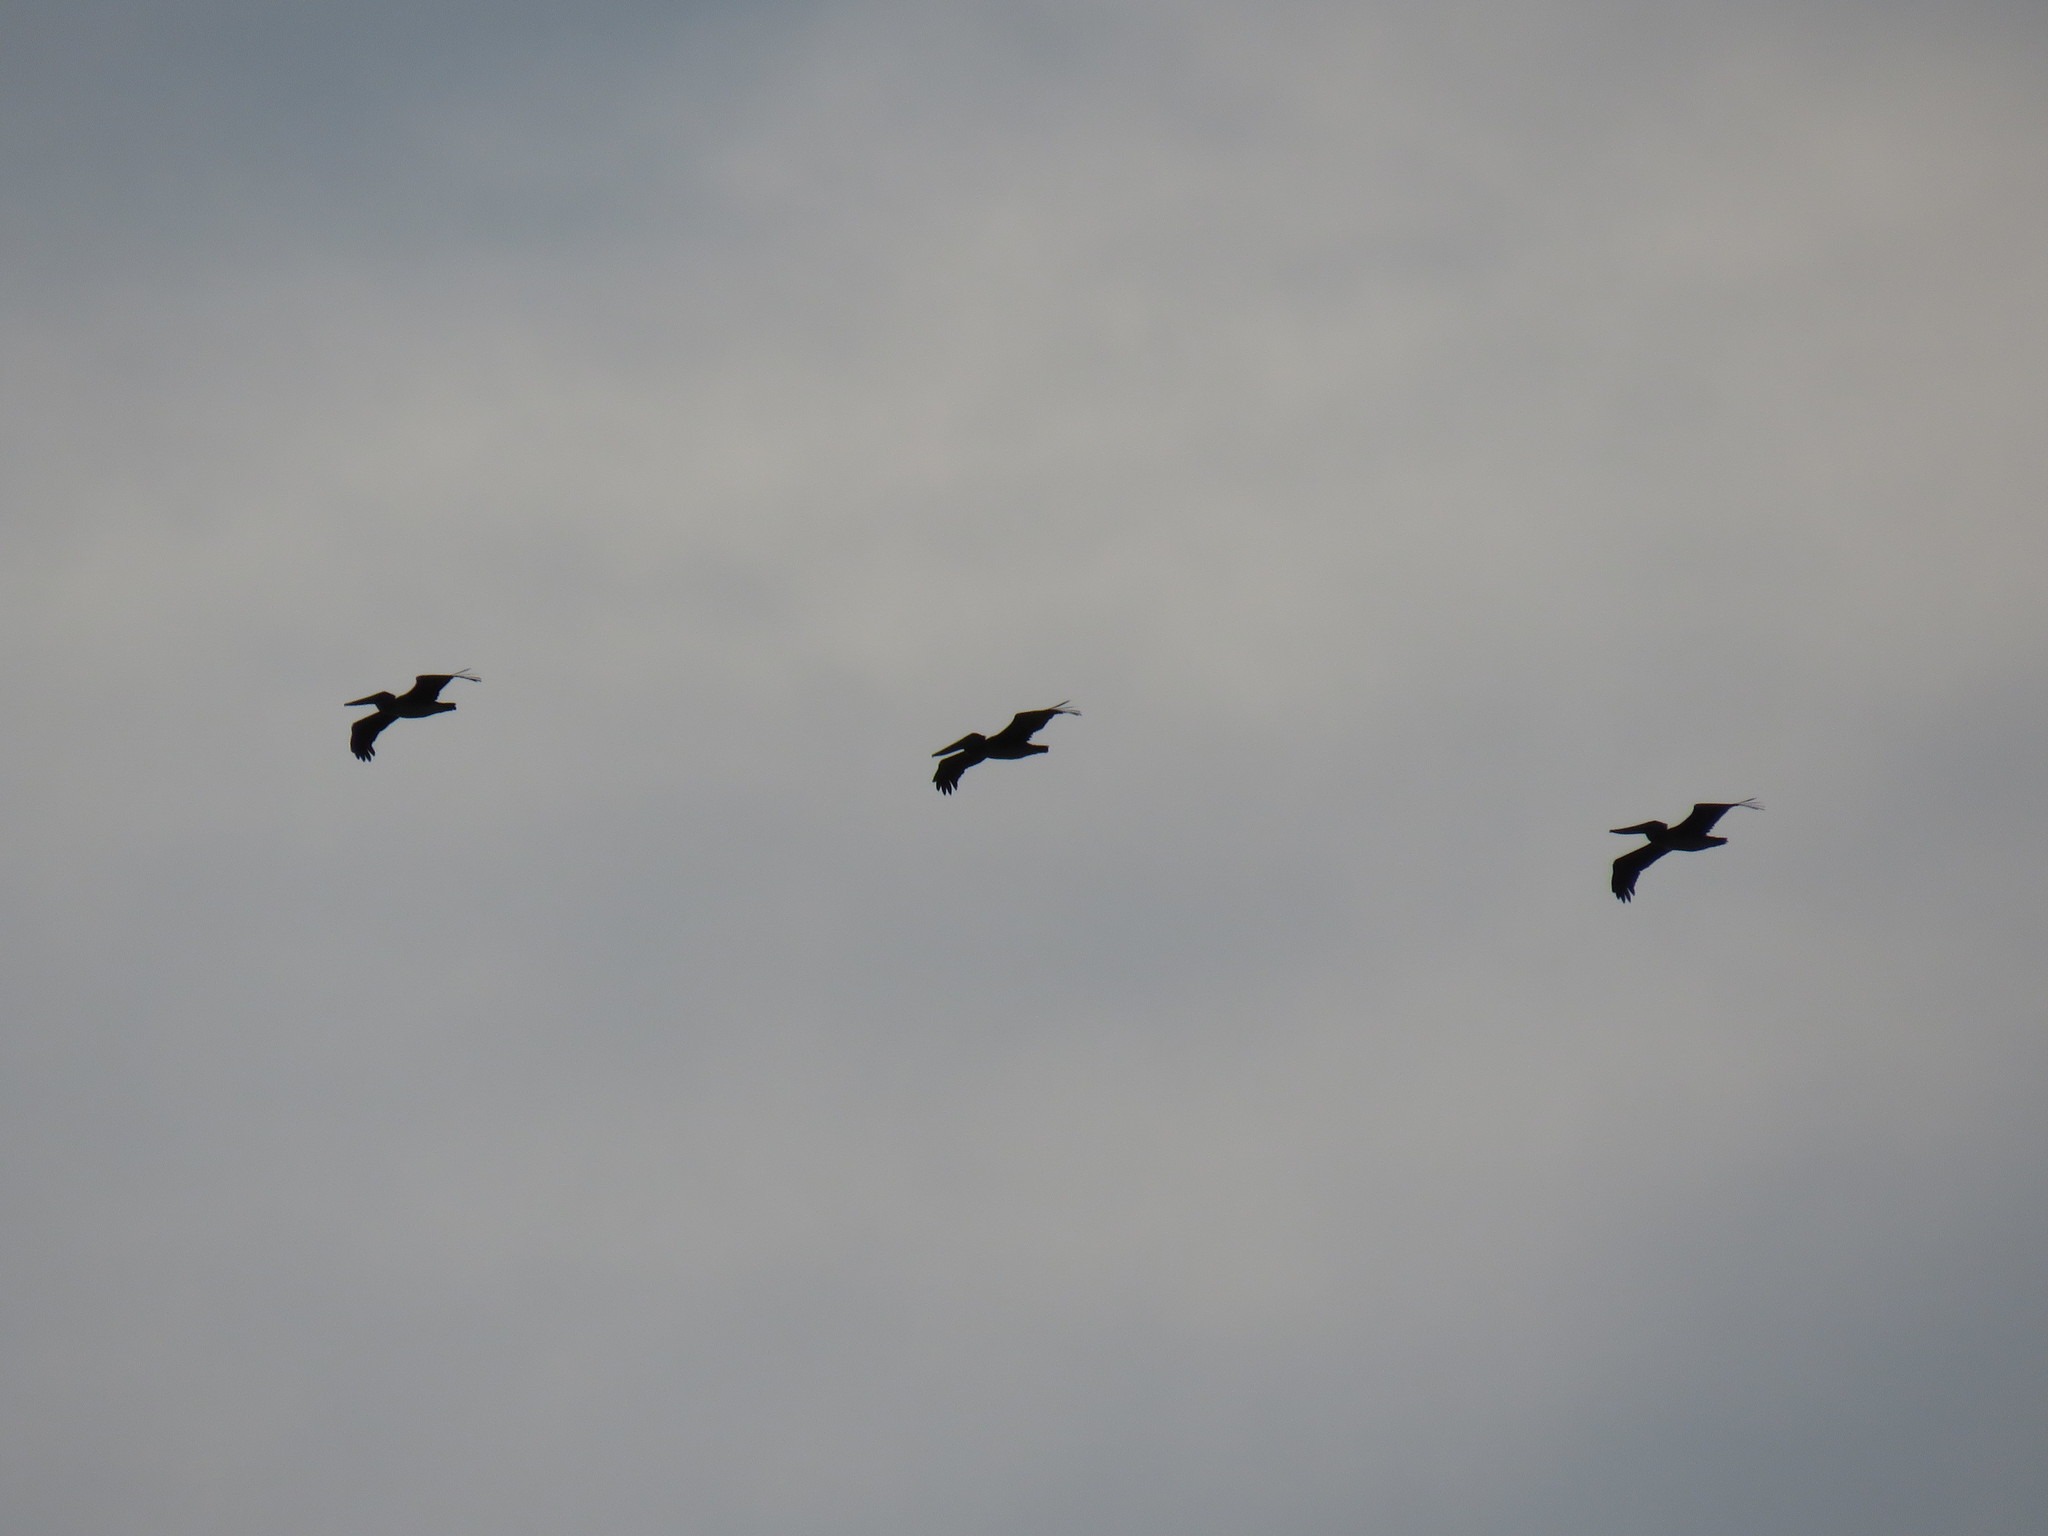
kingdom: Animalia
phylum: Chordata
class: Aves
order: Pelecaniformes
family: Pelecanidae
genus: Pelecanus
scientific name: Pelecanus occidentalis
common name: Brown pelican
